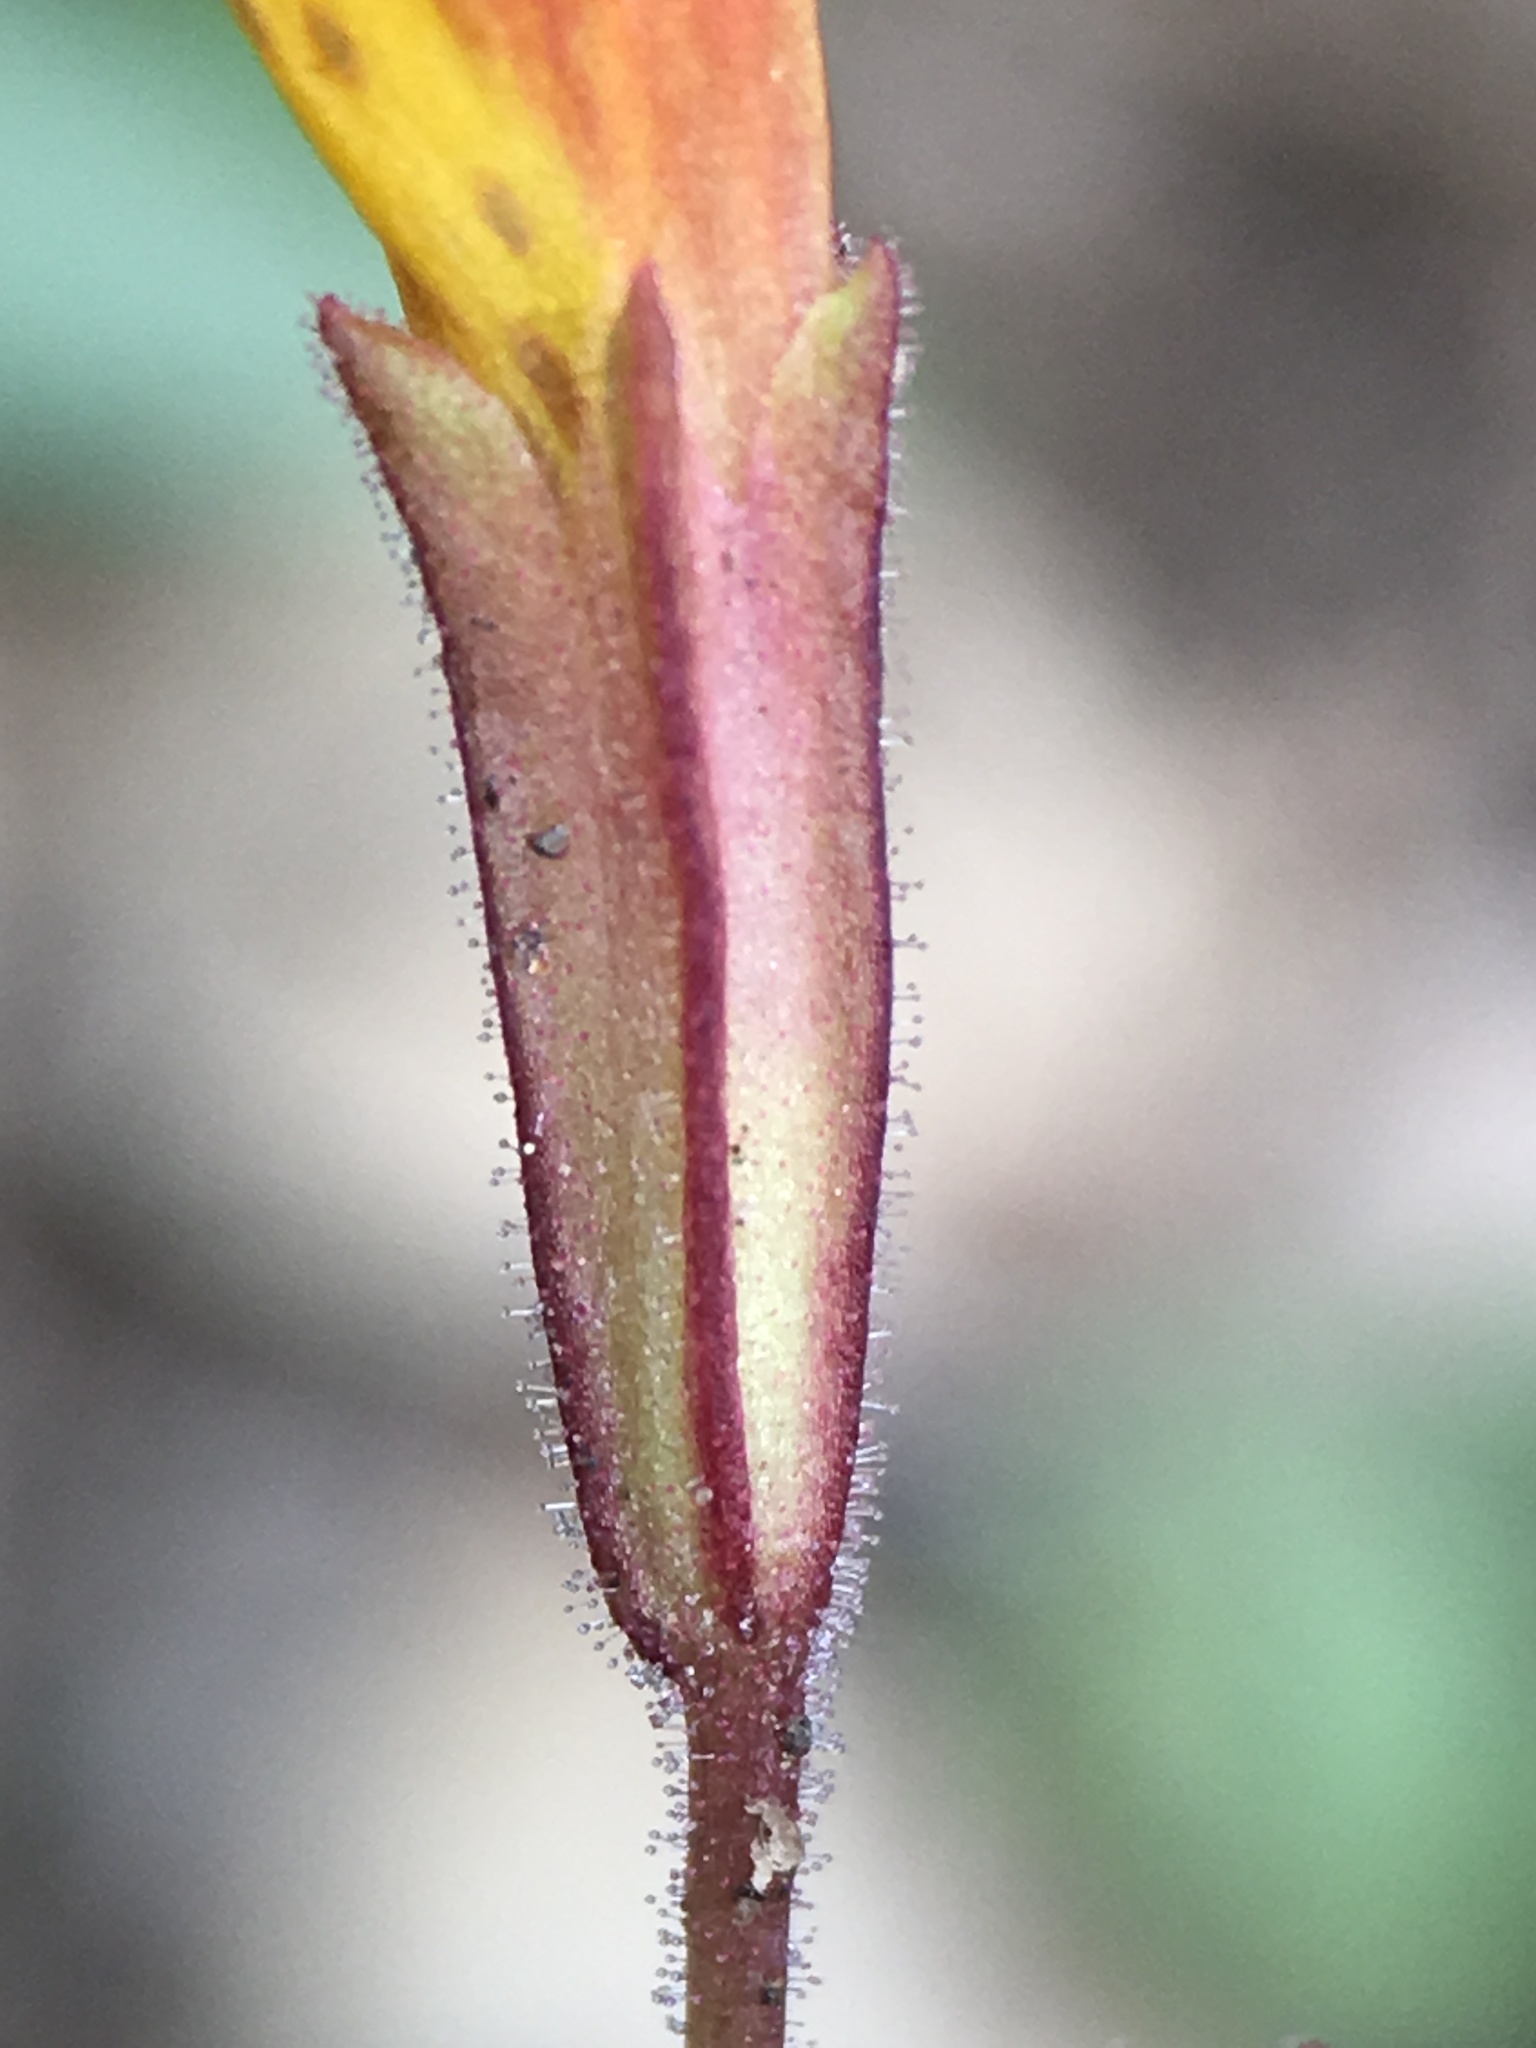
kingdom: Plantae
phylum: Tracheophyta
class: Magnoliopsida
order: Lamiales
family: Phrymaceae
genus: Erythranthe
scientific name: Erythranthe discolor
